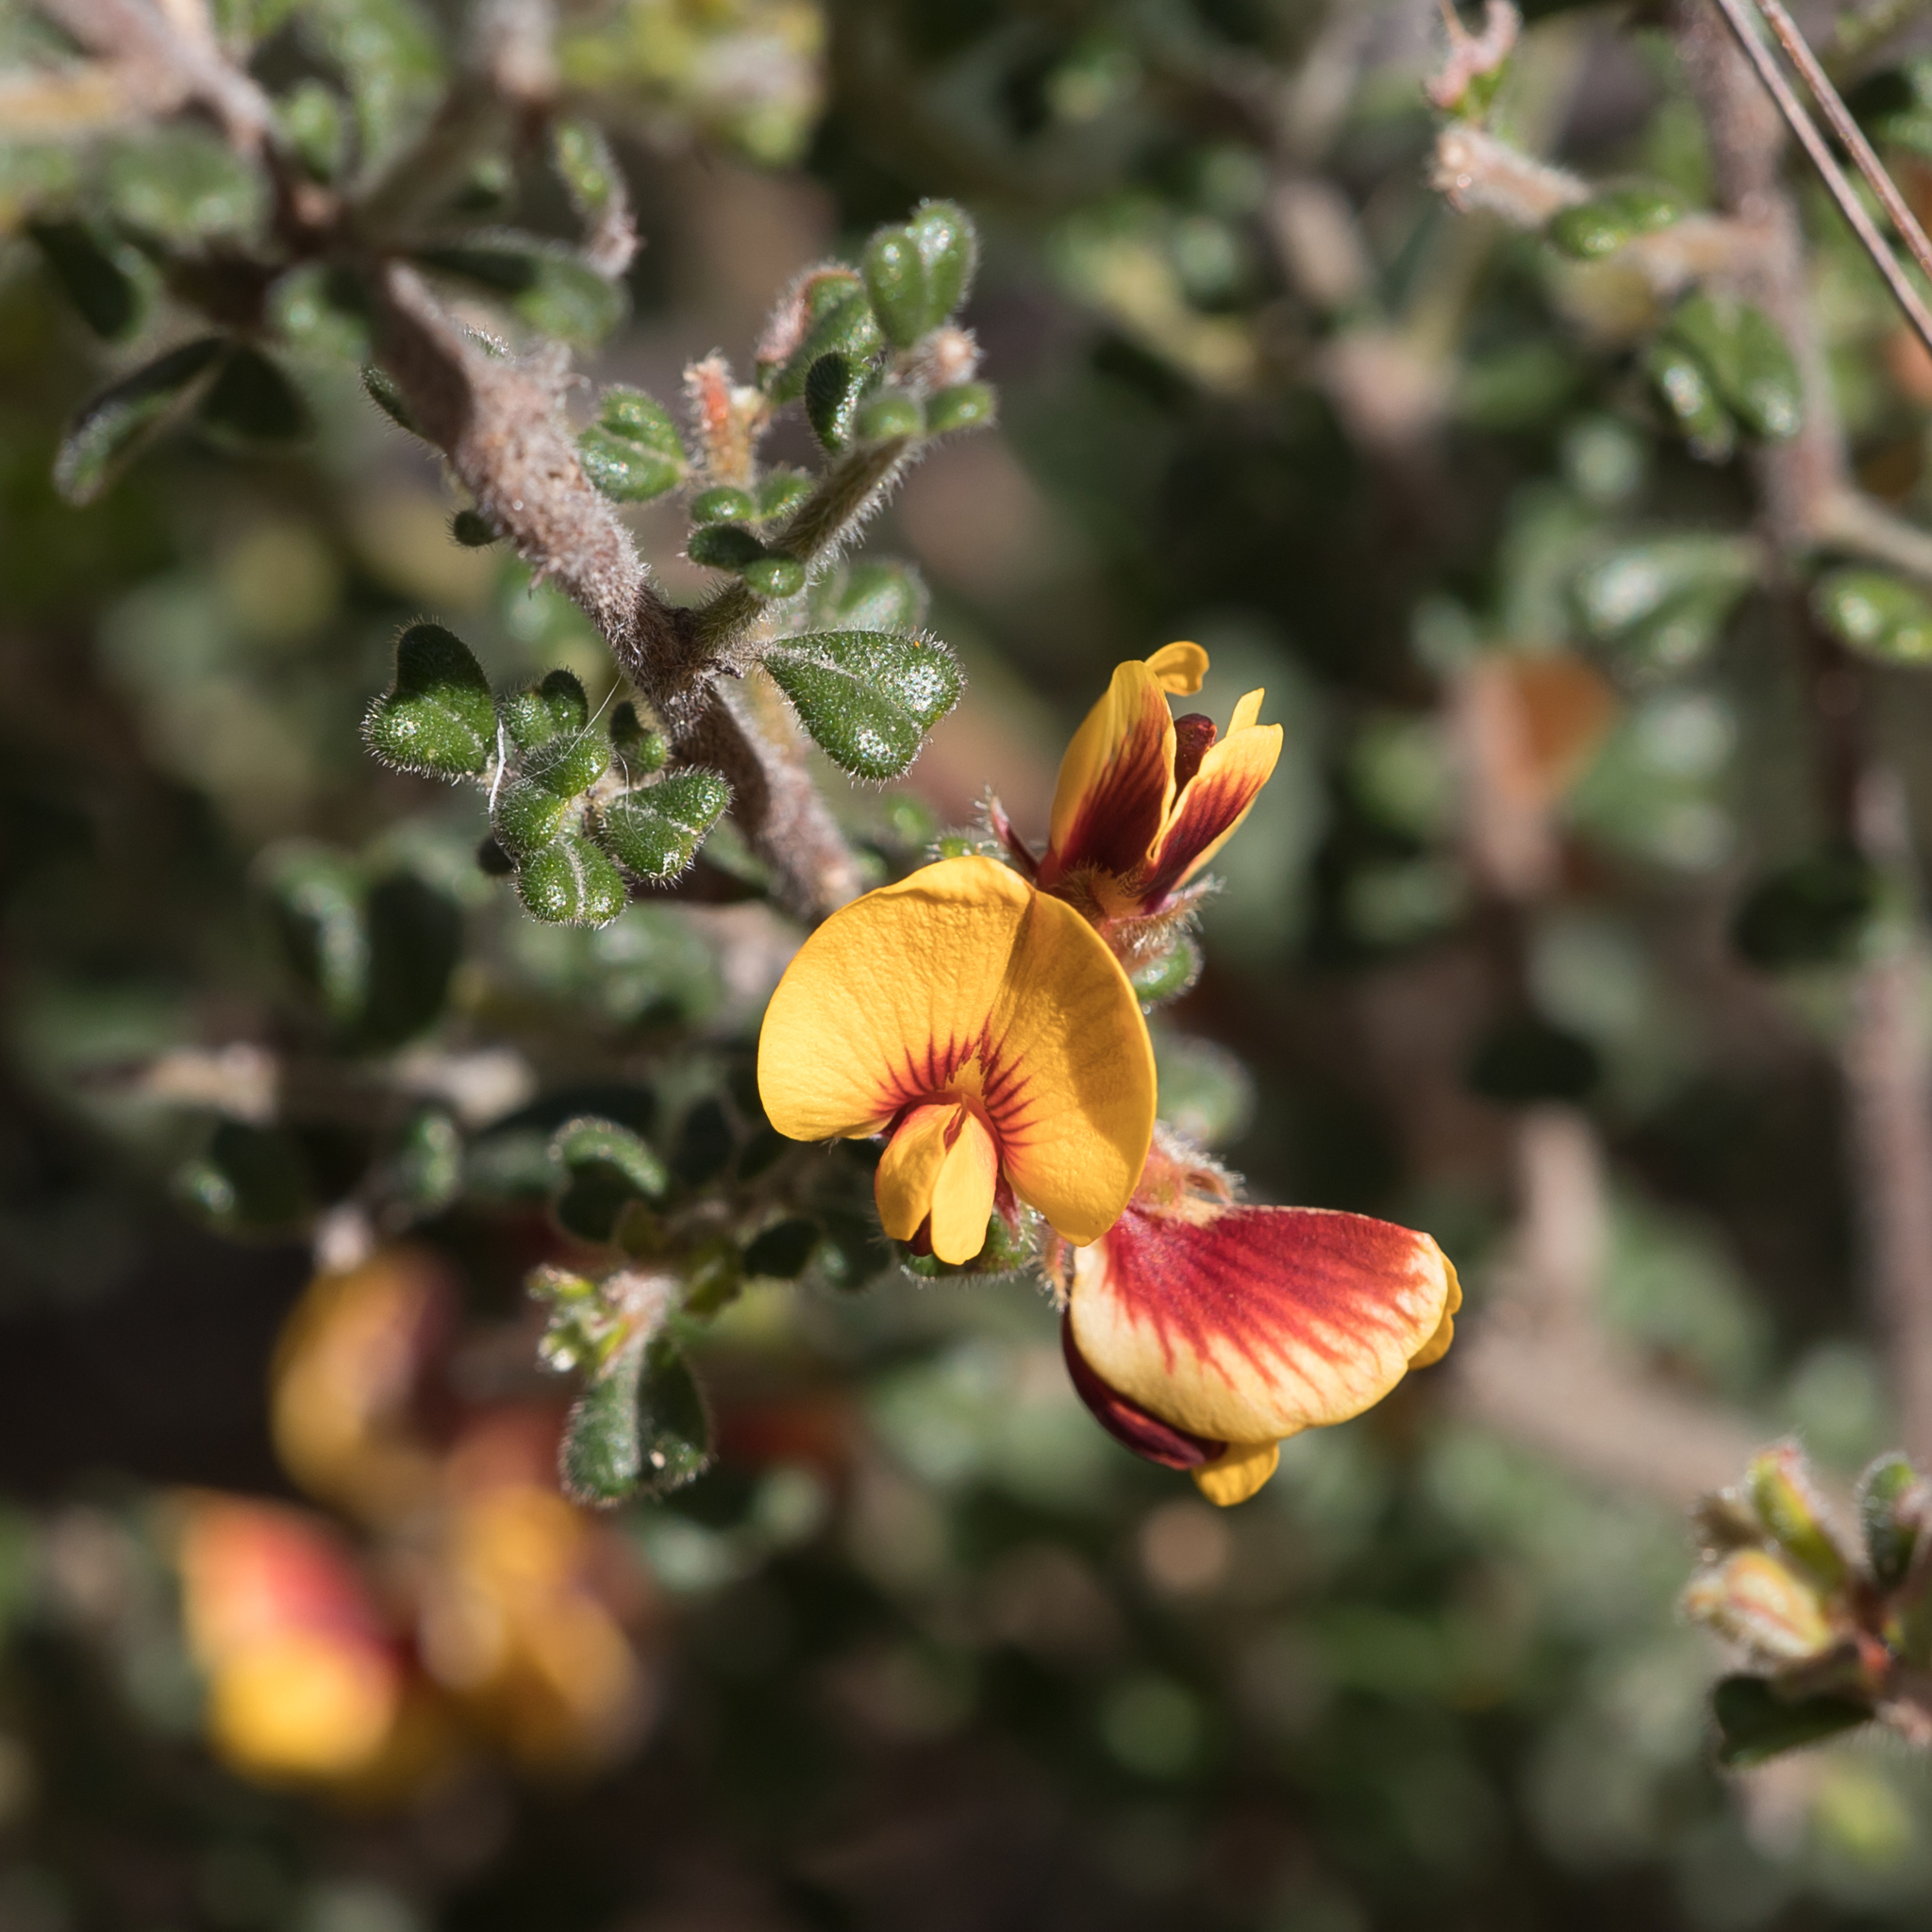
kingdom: Plantae
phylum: Tracheophyta
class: Magnoliopsida
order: Fabales
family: Fabaceae
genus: Pultenaea
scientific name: Pultenaea scabra
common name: Rough bush-pea
